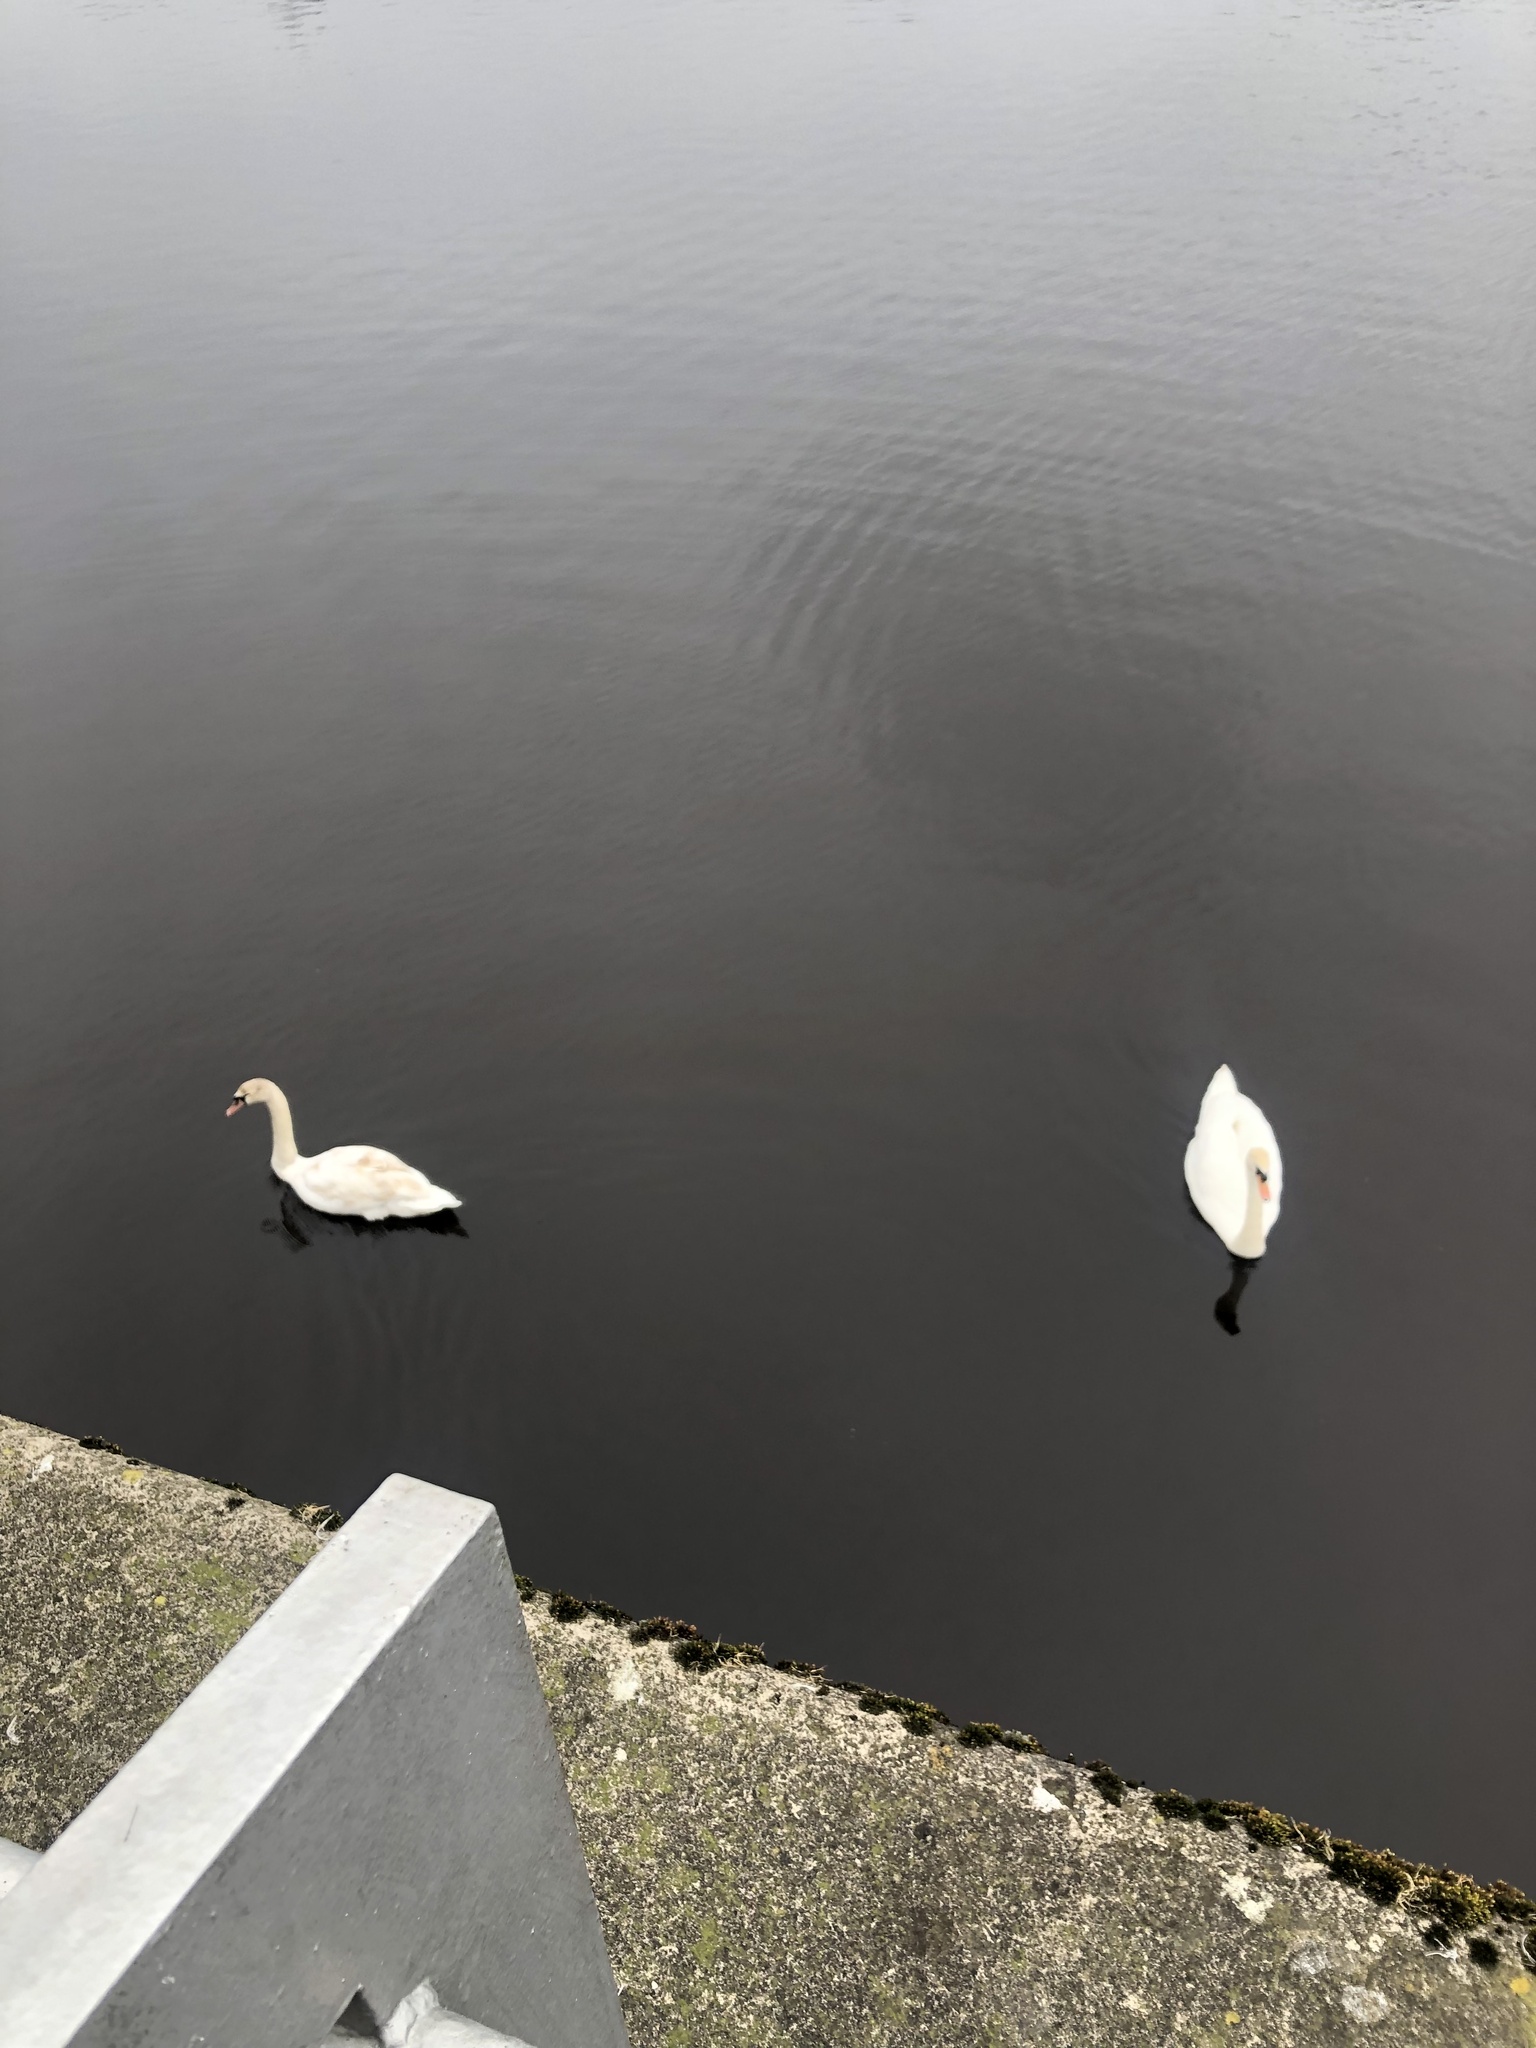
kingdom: Animalia
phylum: Chordata
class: Aves
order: Anseriformes
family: Anatidae
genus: Cygnus
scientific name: Cygnus olor
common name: Mute swan
